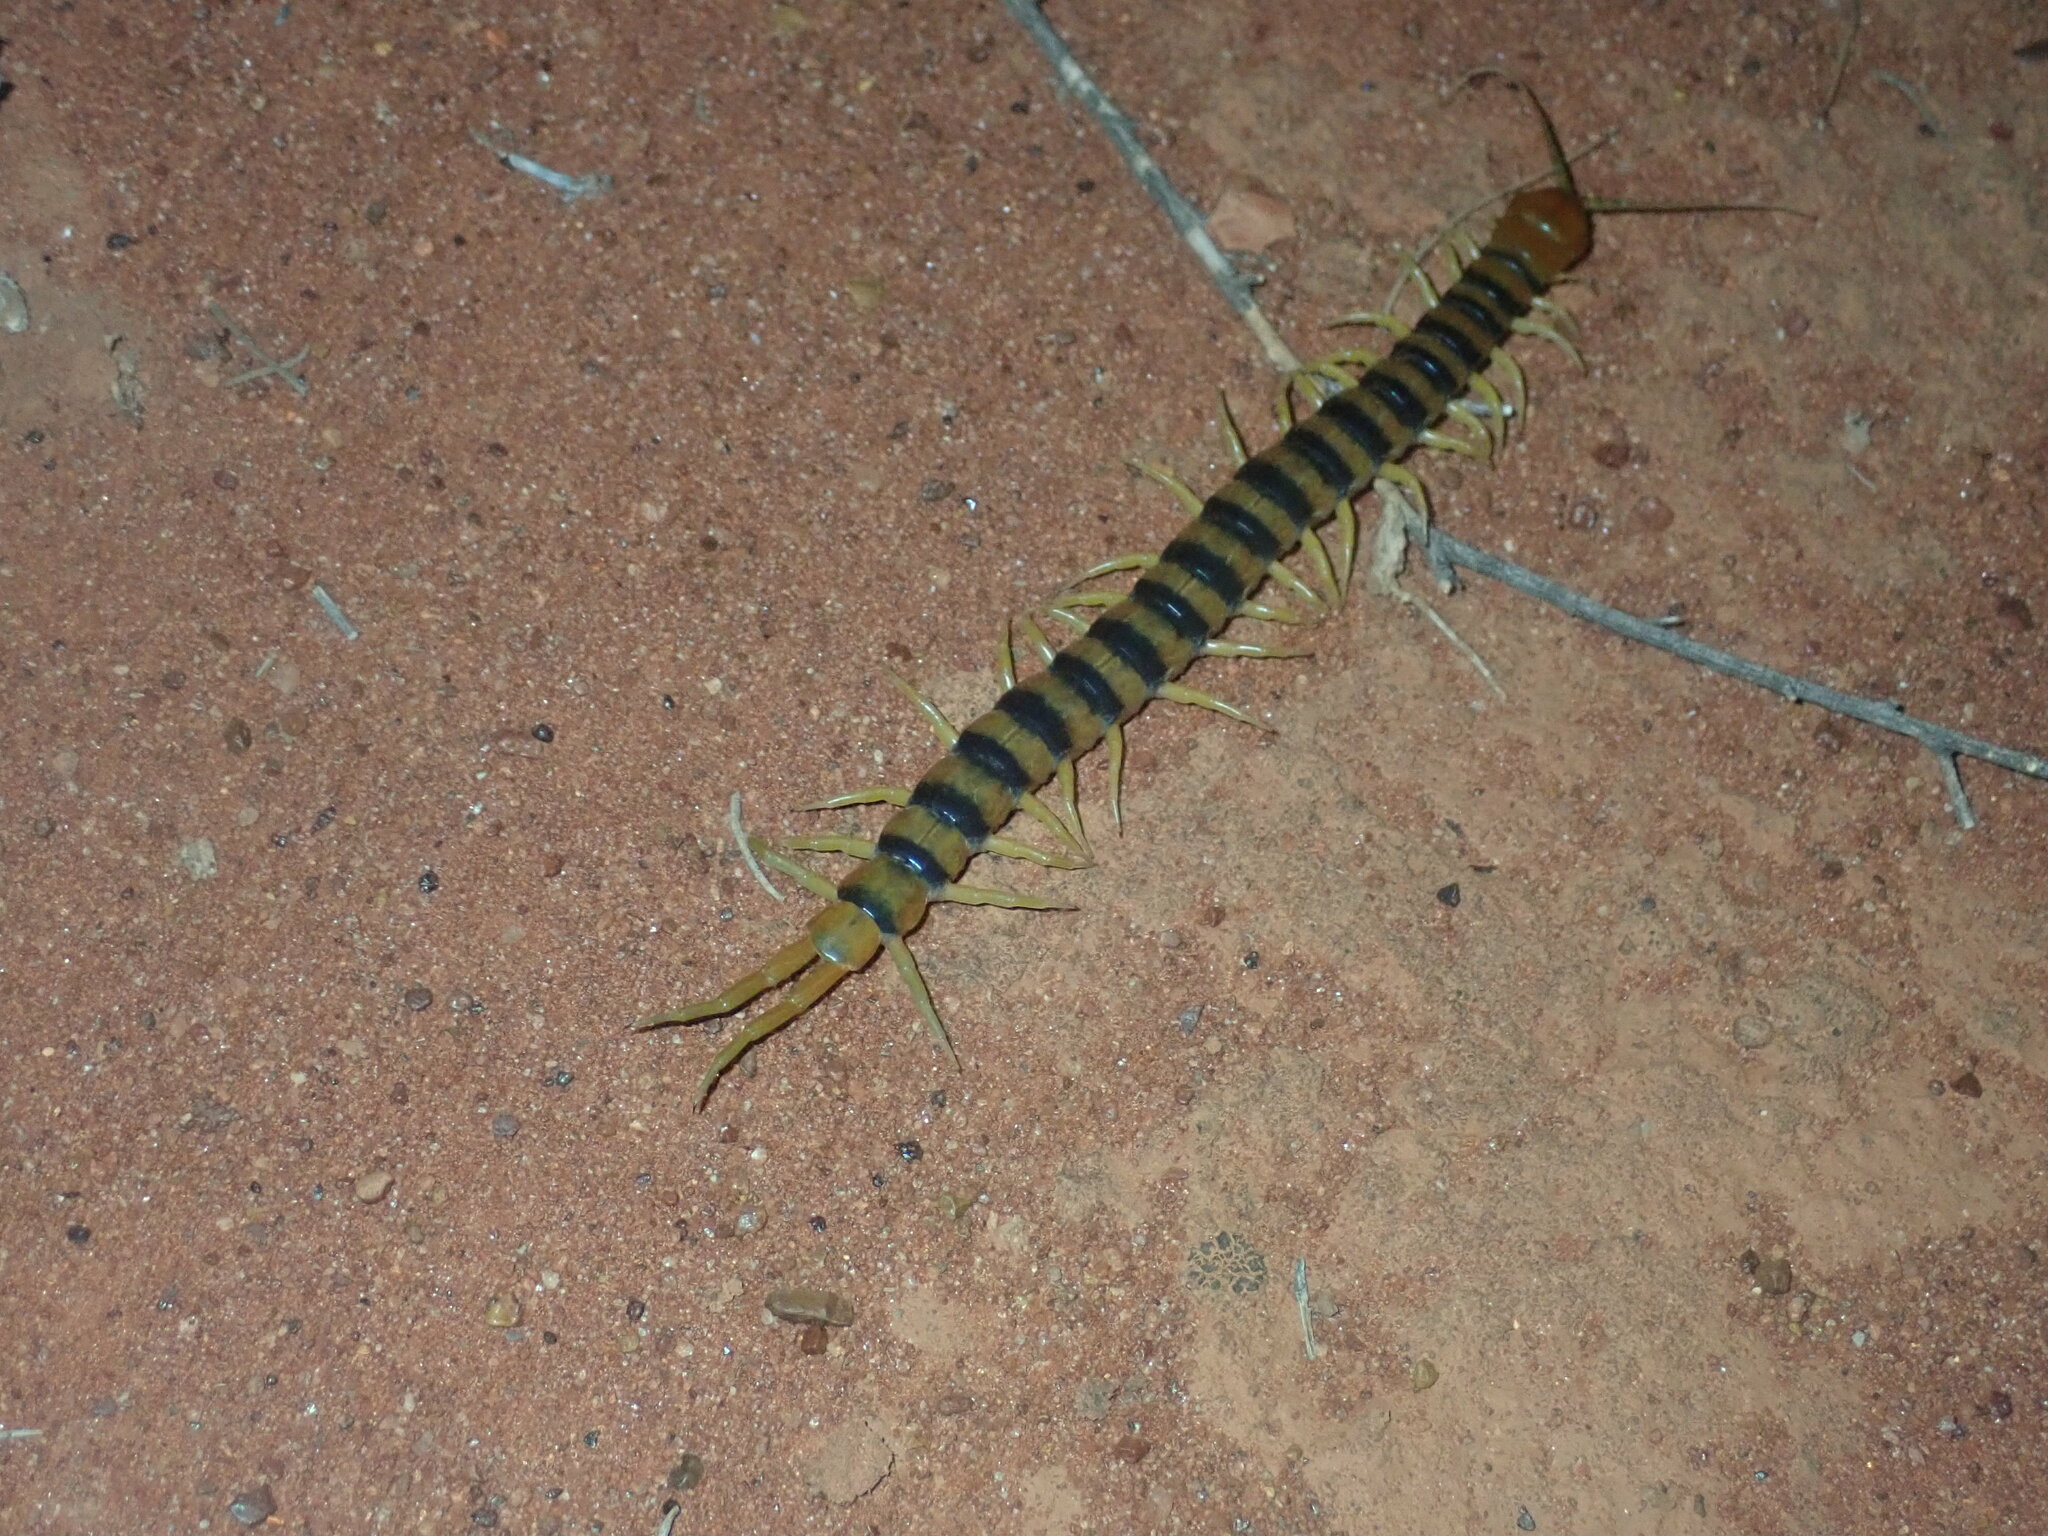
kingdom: Animalia
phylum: Arthropoda
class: Chilopoda
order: Scolopendromorpha
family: Scolopendridae
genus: Scolopendra
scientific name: Scolopendra morsitans
